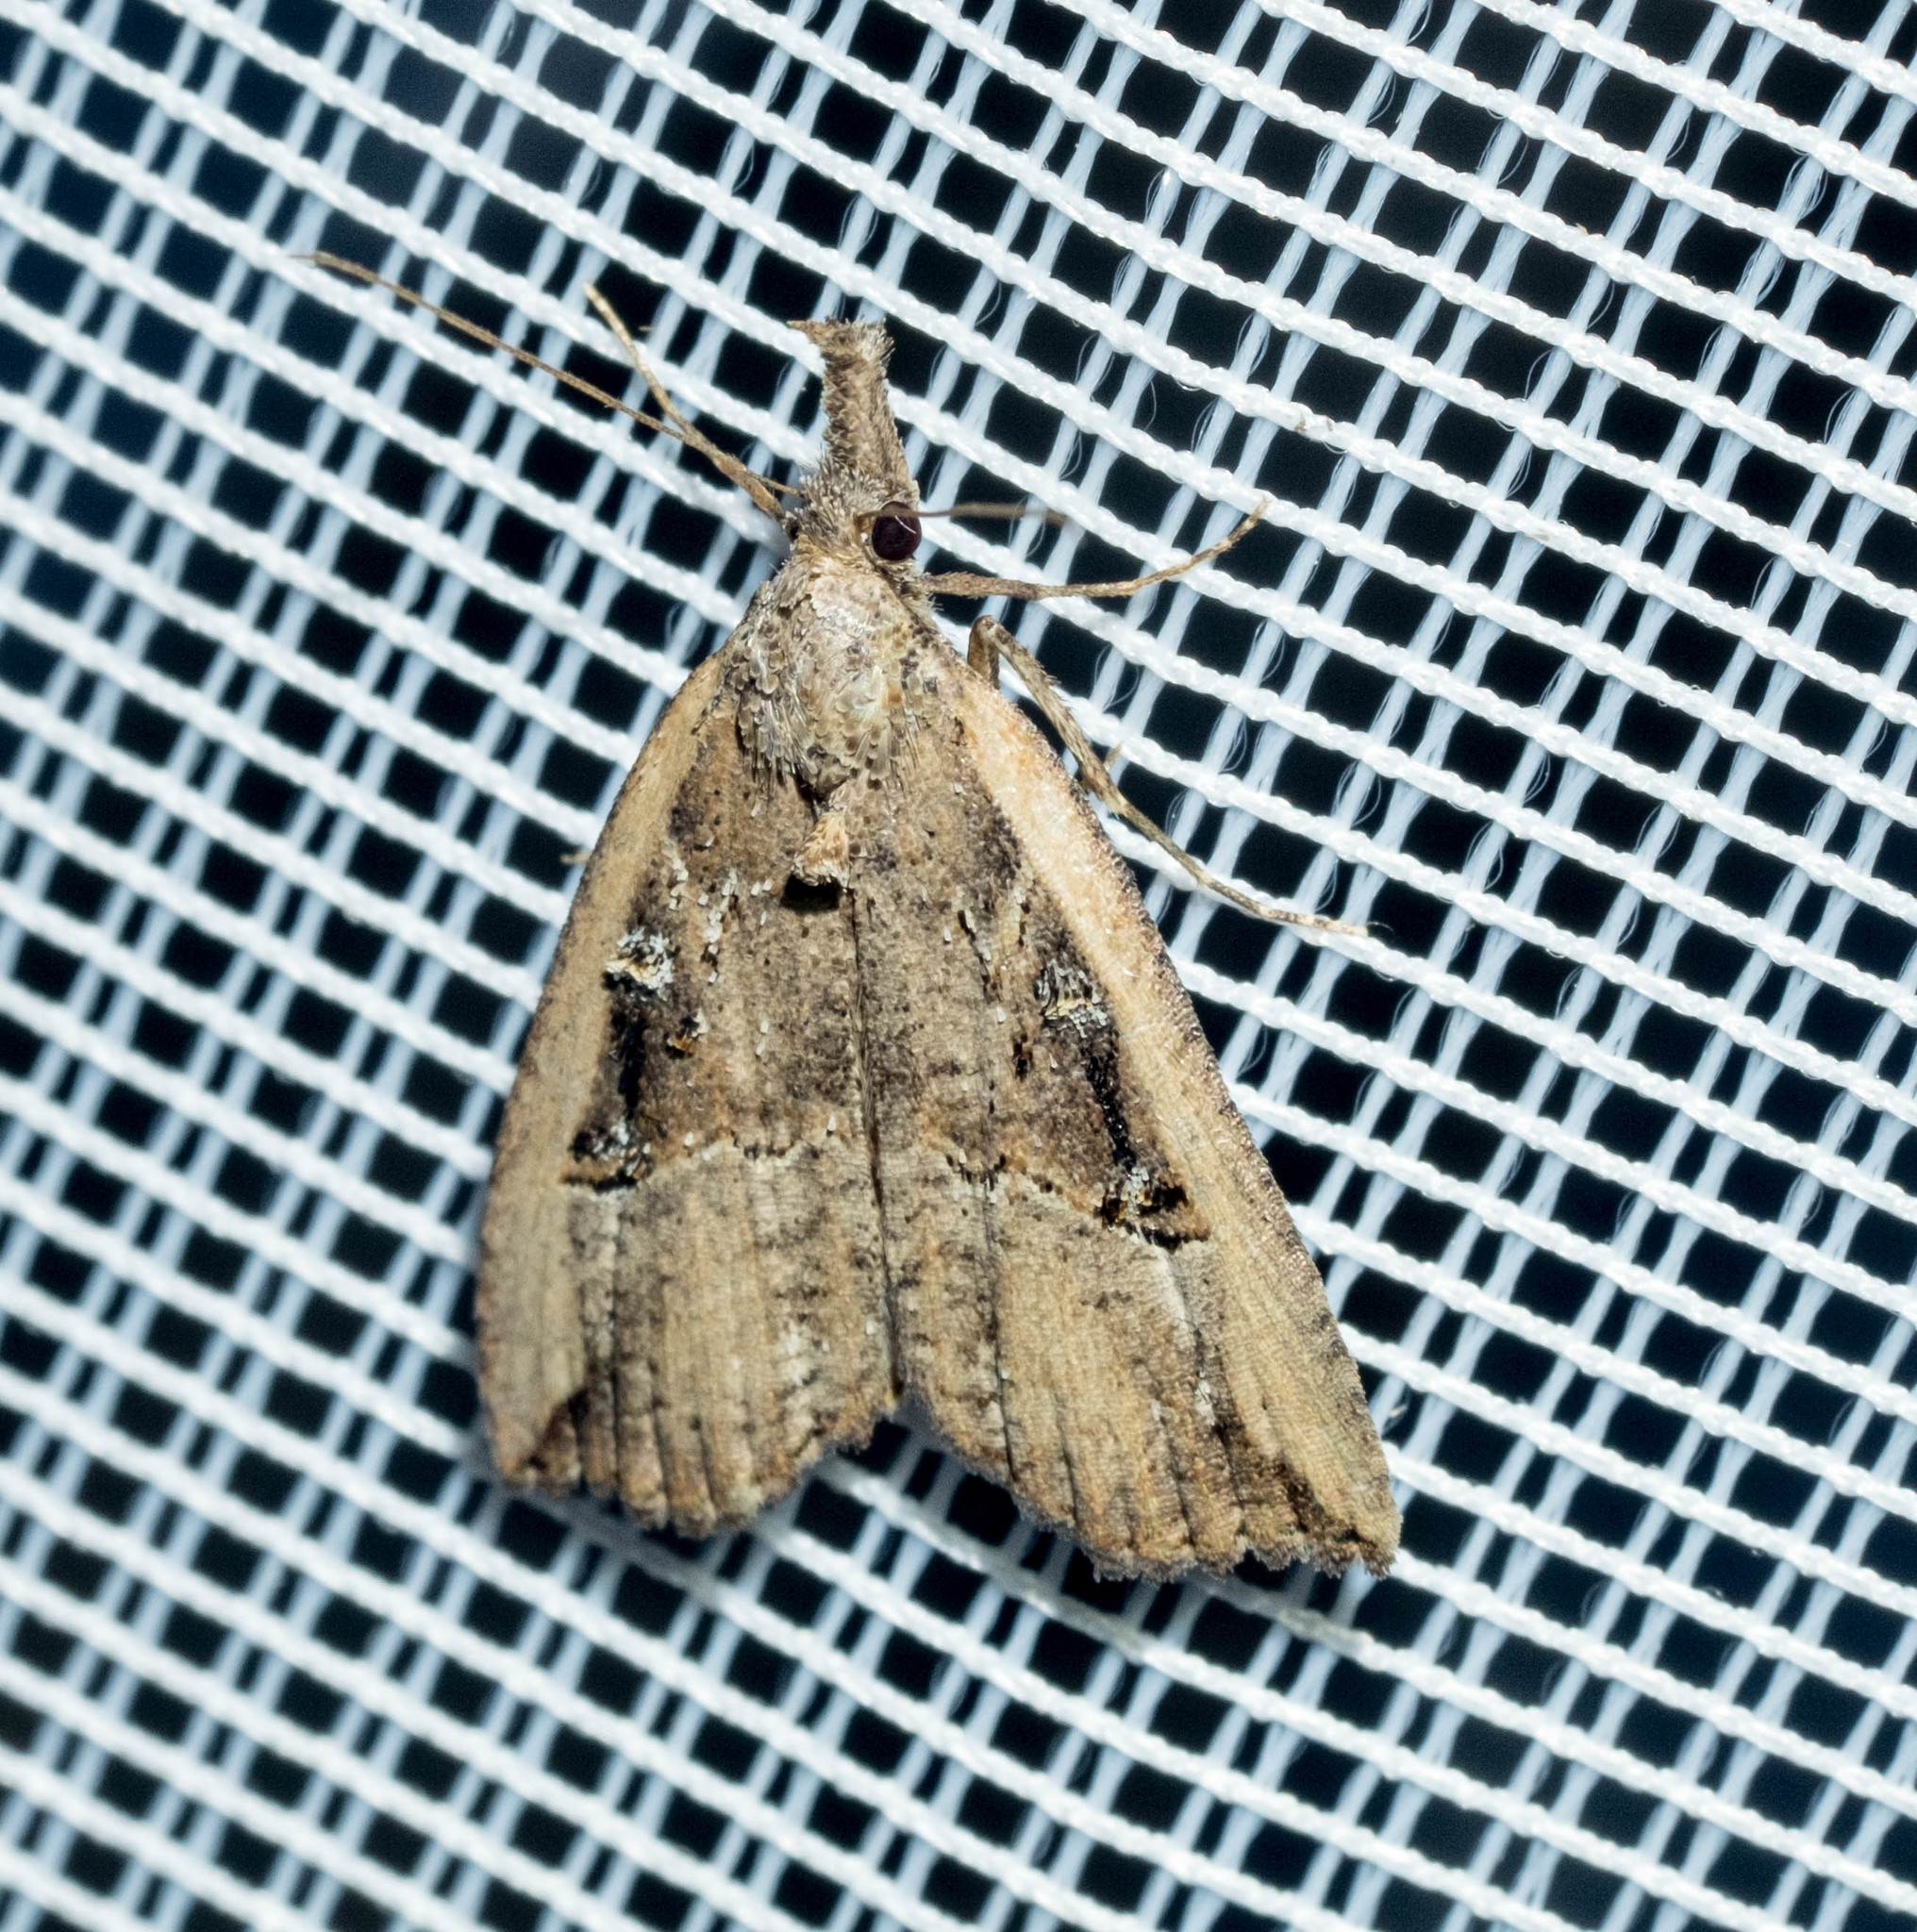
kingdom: Animalia
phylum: Arthropoda
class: Insecta
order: Lepidoptera
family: Erebidae
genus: Hypena
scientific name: Hypena rostralis
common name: Buttoned snout
